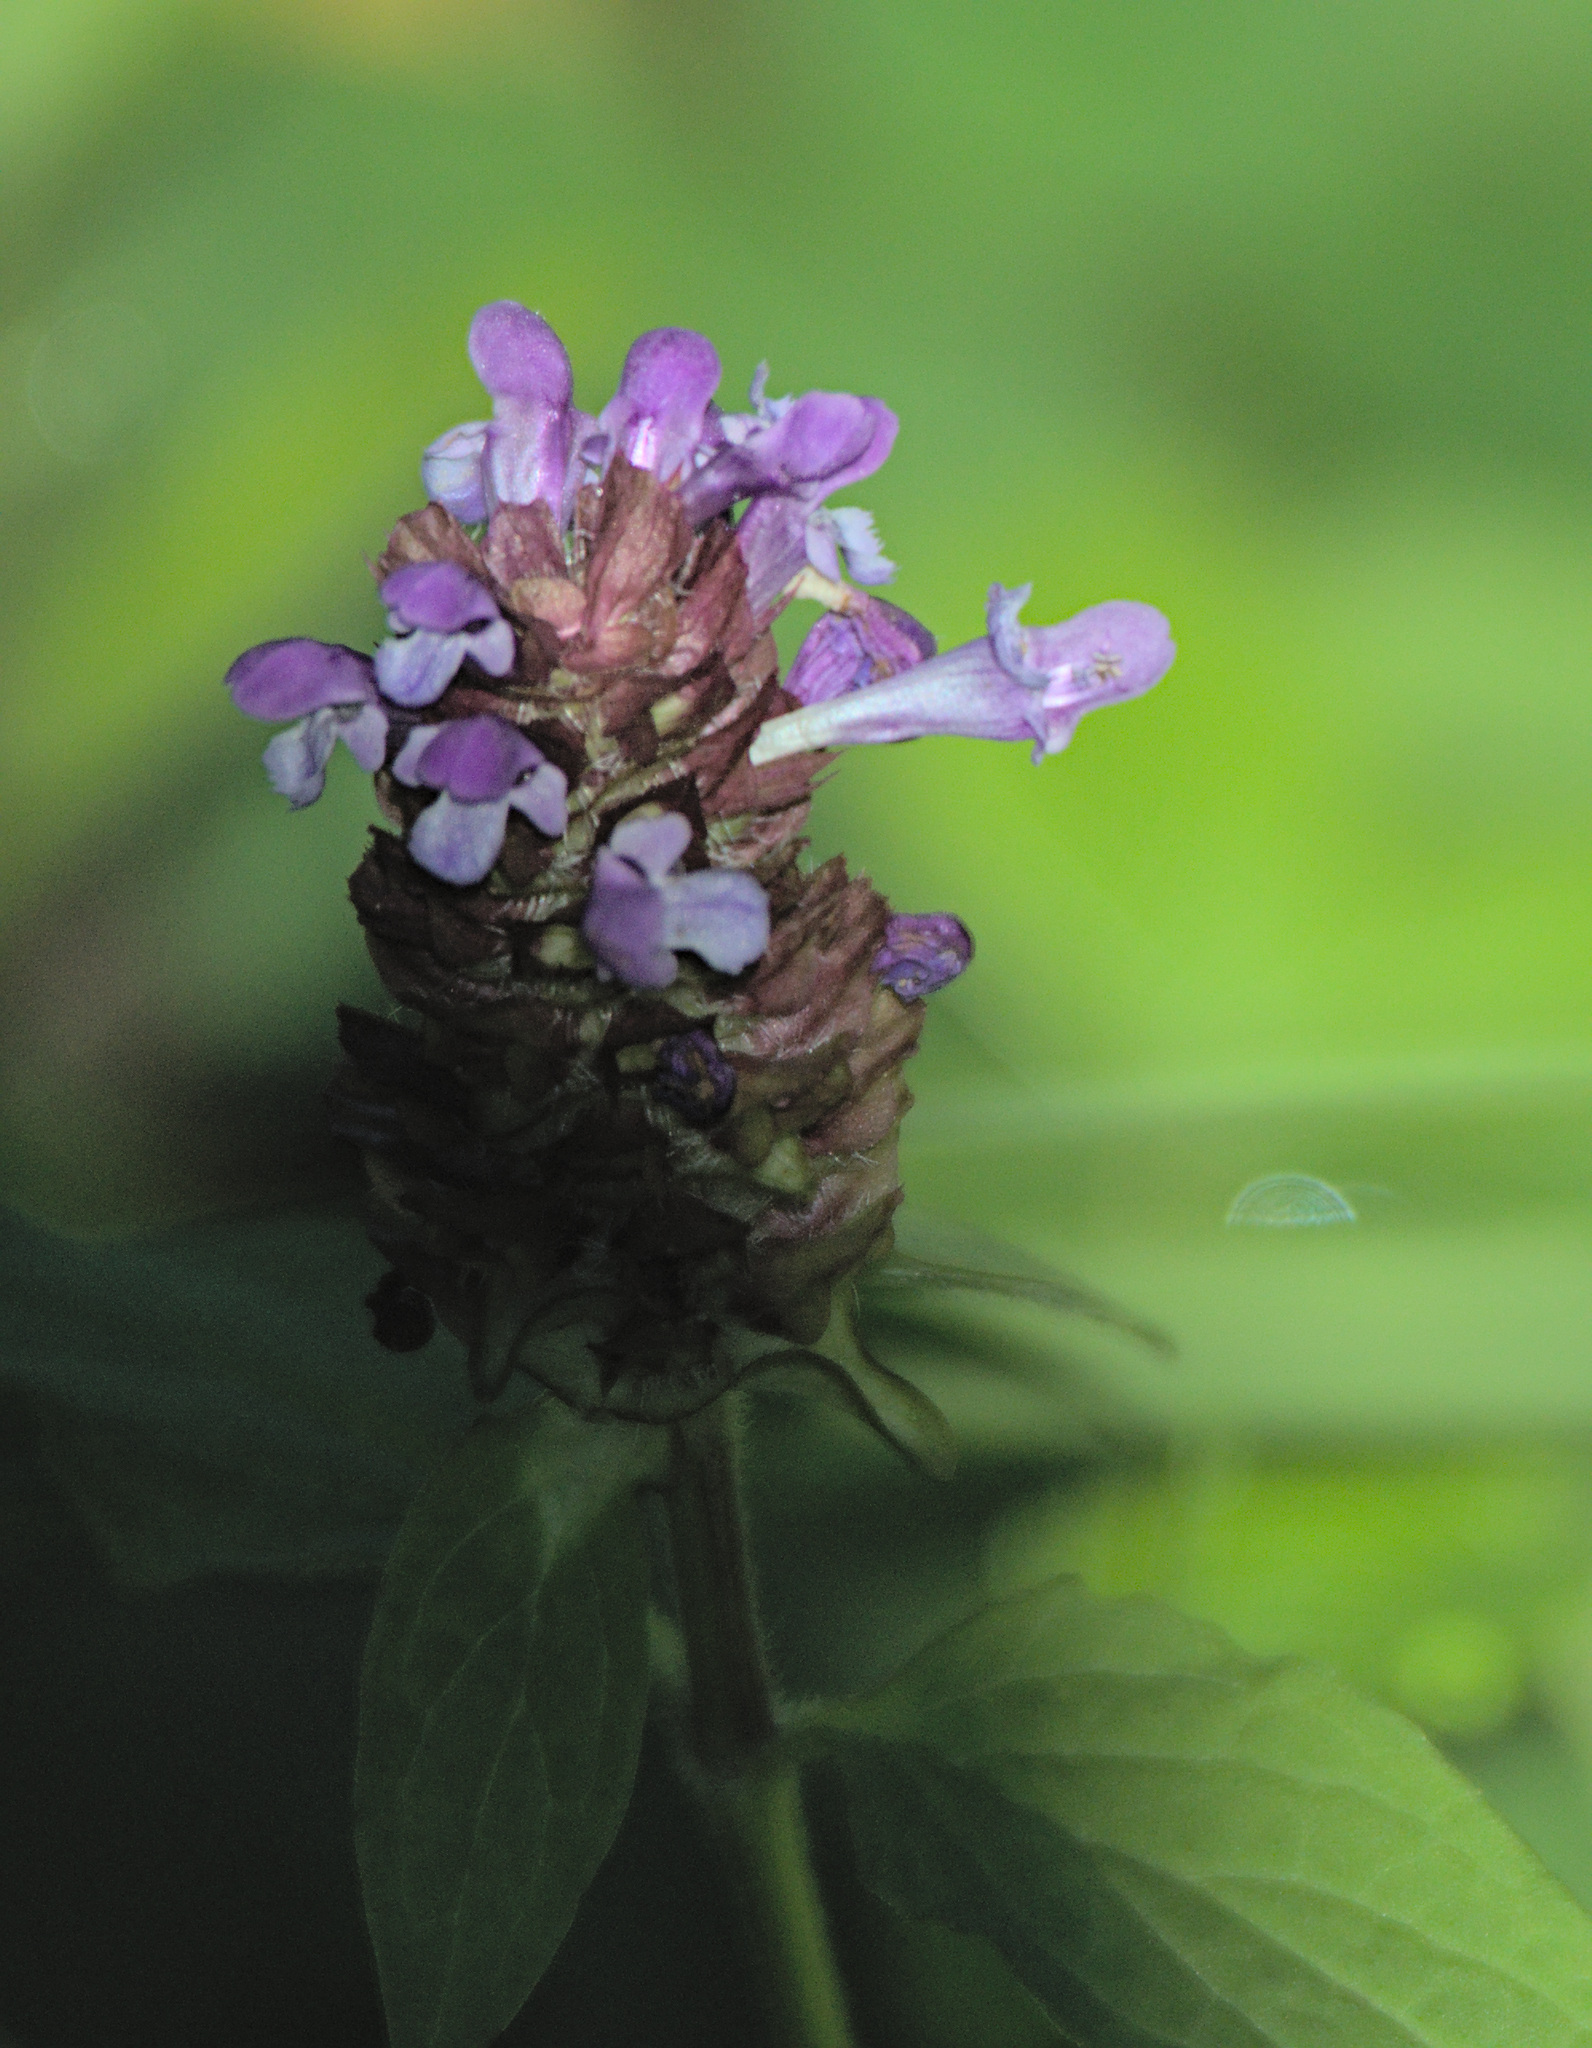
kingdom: Plantae
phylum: Tracheophyta
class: Magnoliopsida
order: Lamiales
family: Lamiaceae
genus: Prunella
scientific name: Prunella vulgaris
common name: Heal-all
